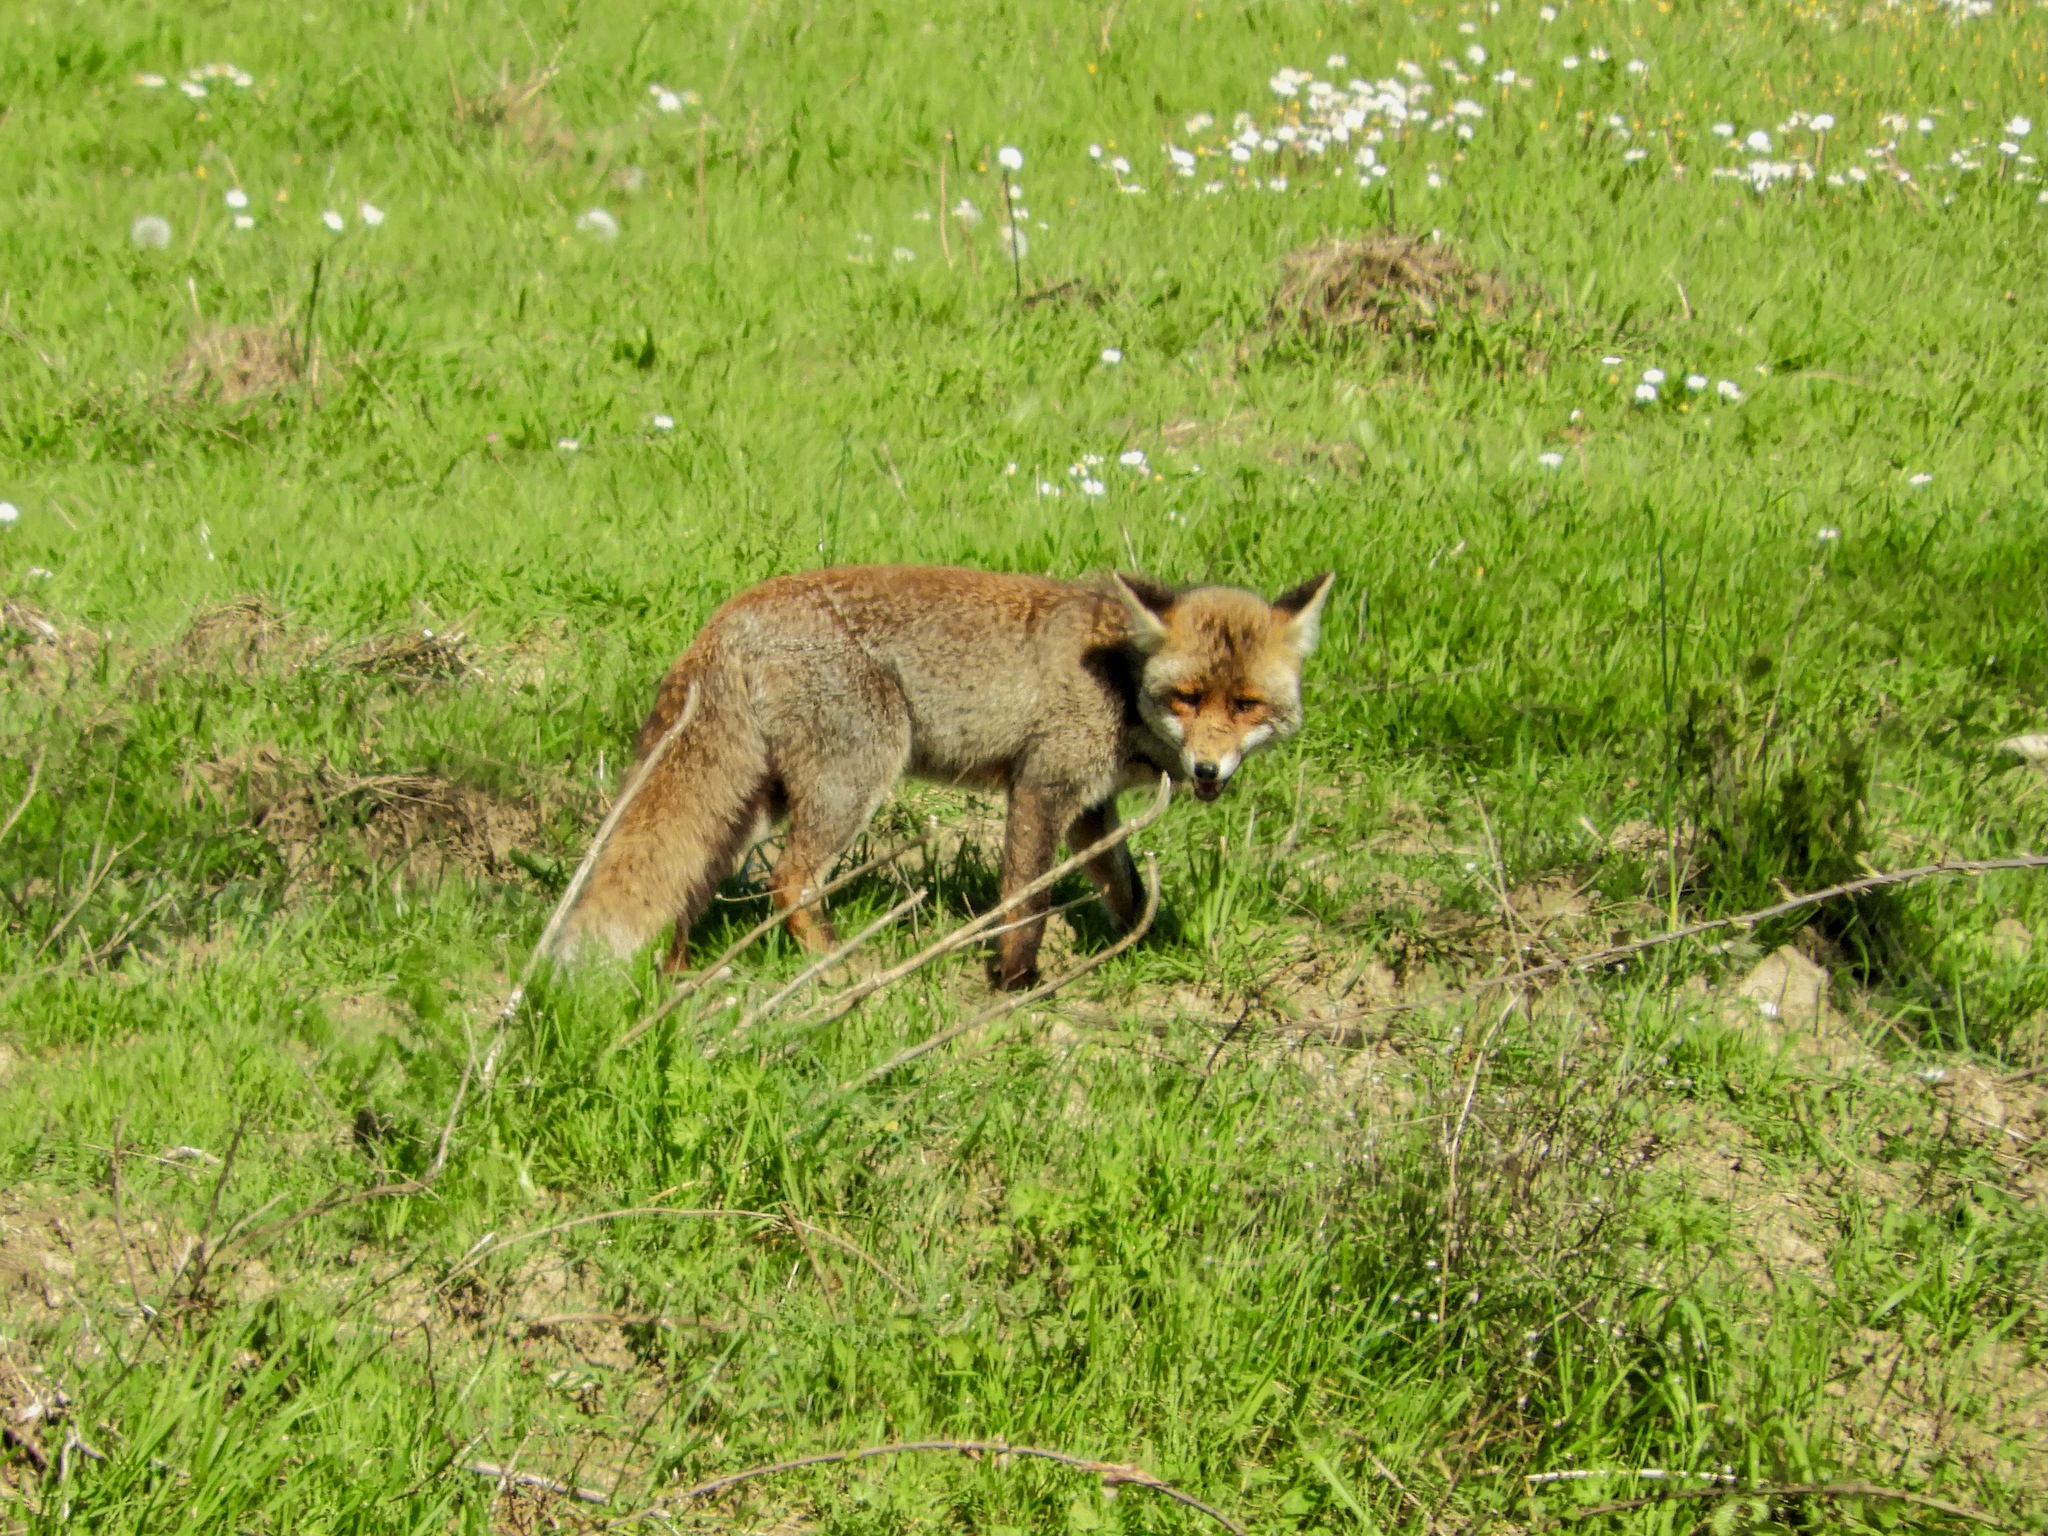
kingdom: Animalia
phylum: Chordata
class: Mammalia
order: Carnivora
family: Canidae
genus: Vulpes
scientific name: Vulpes vulpes
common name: Red fox
